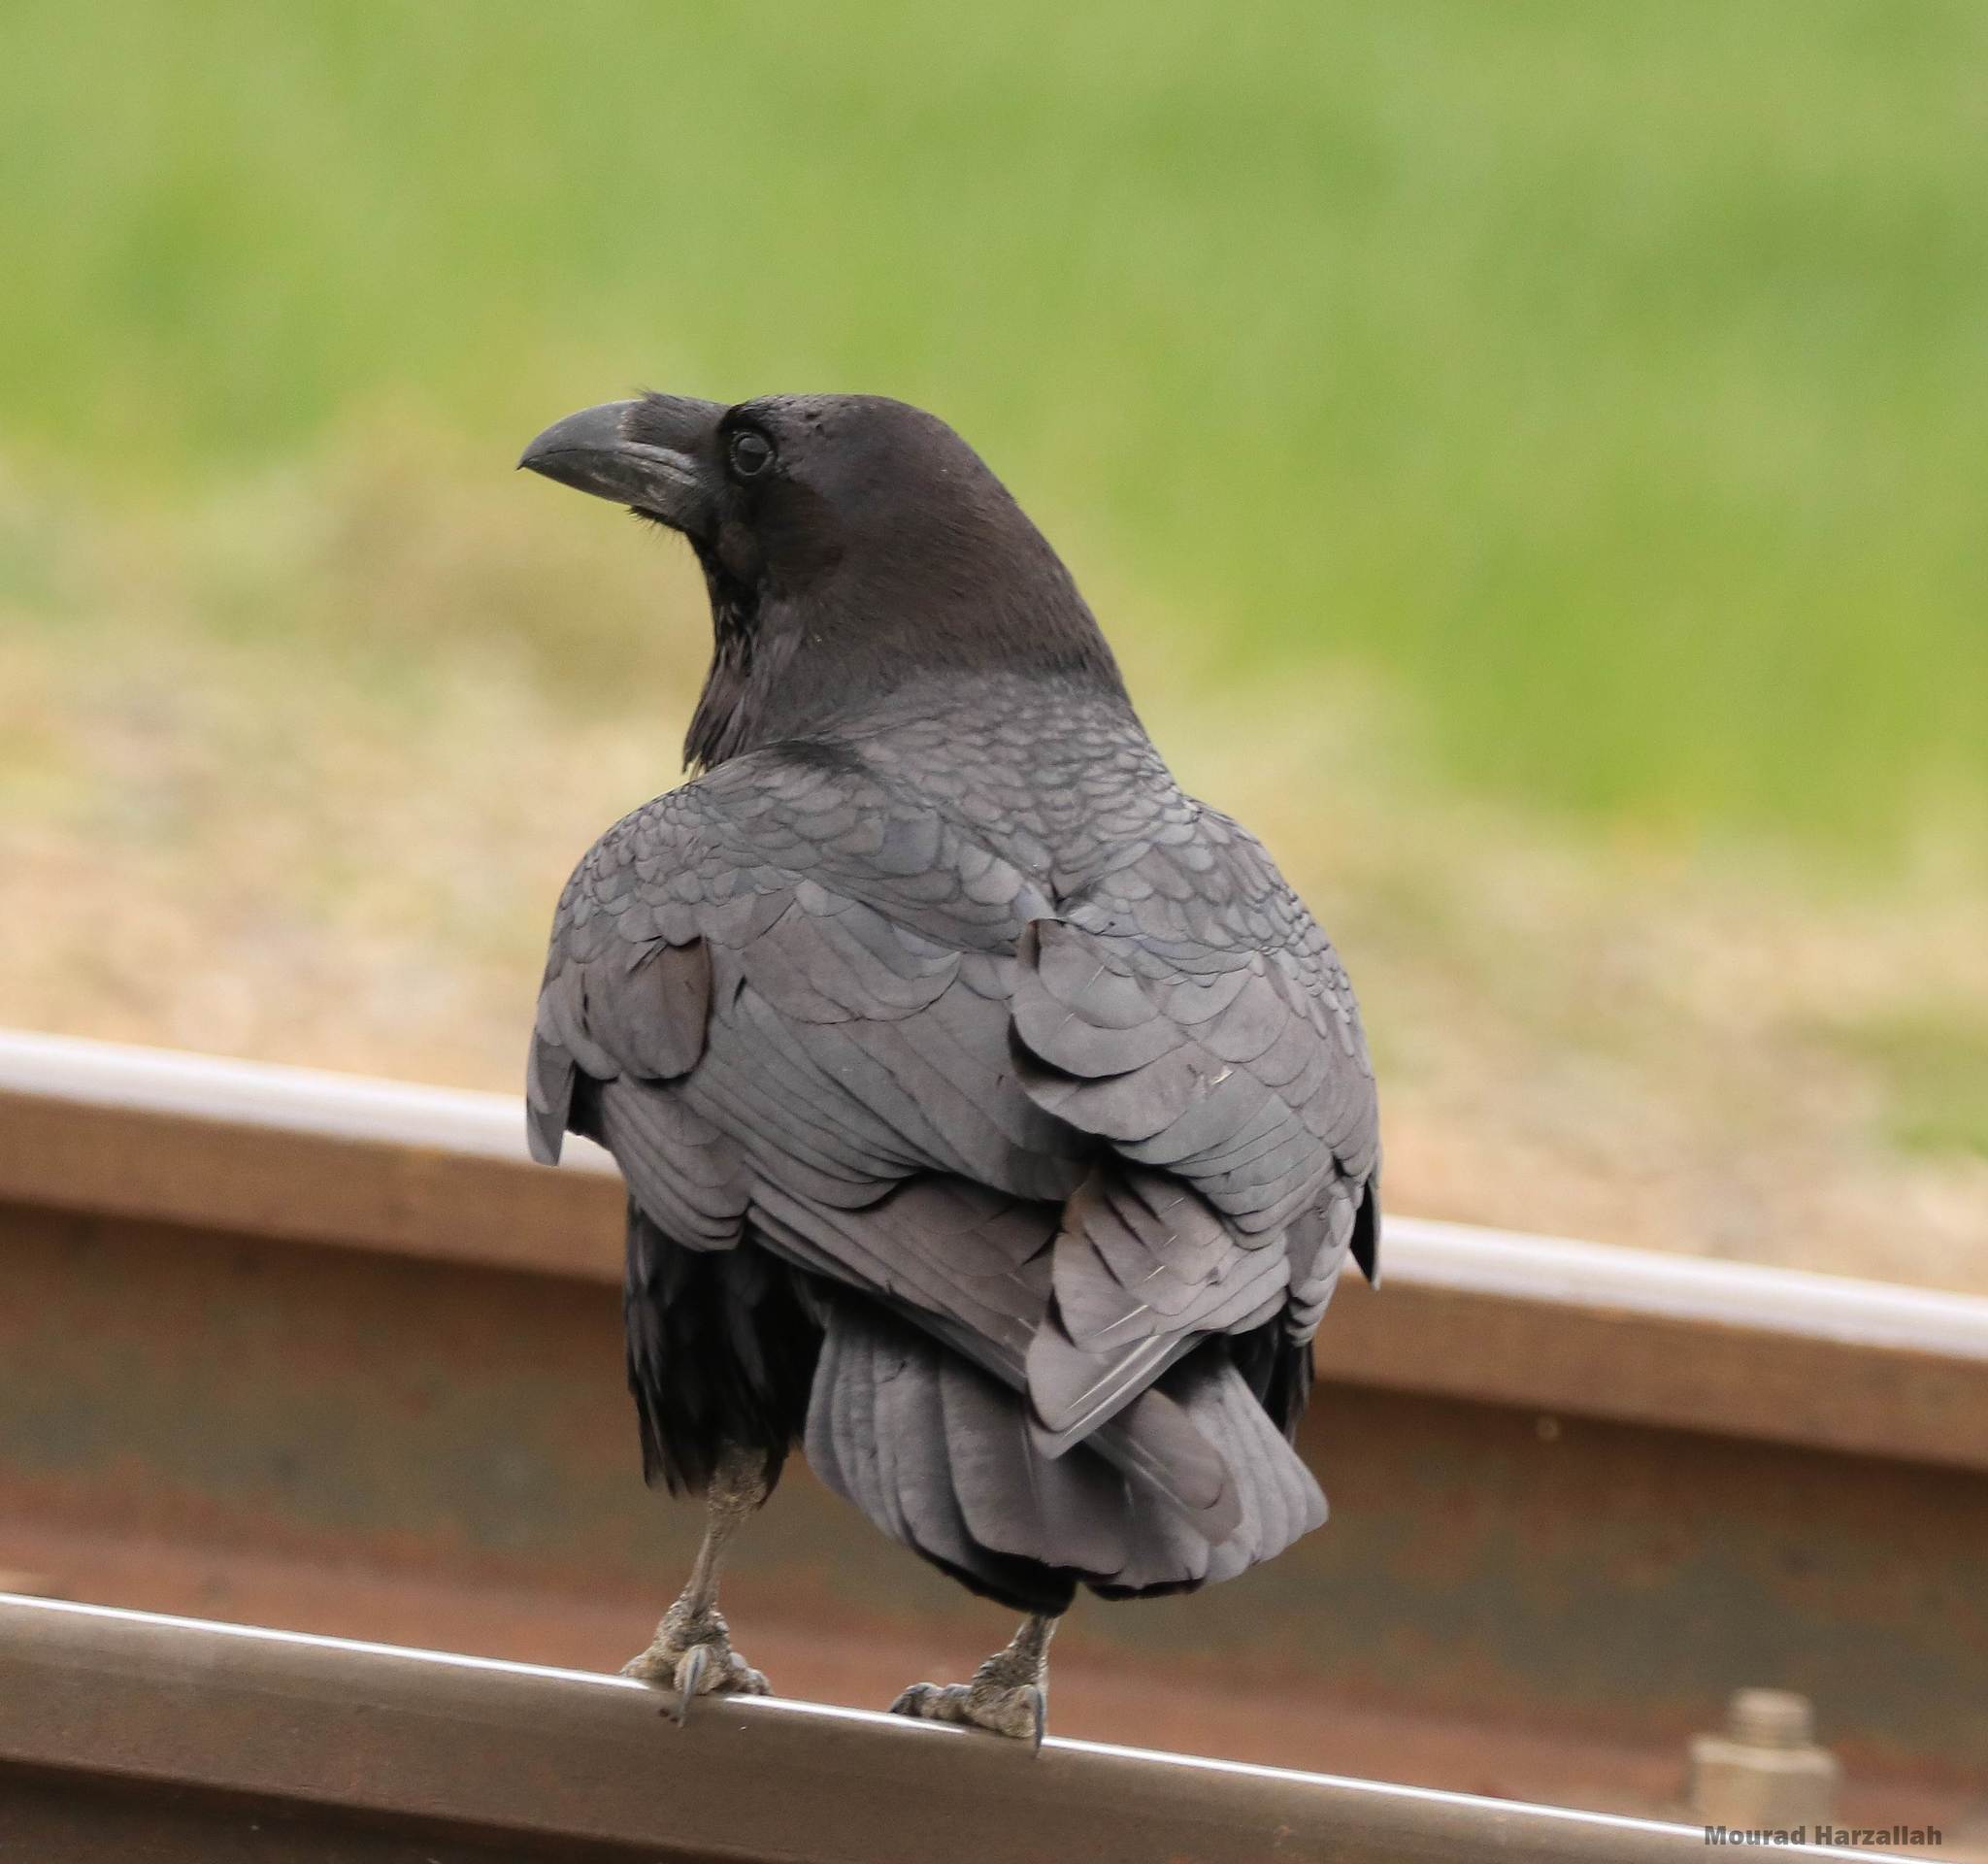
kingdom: Animalia
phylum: Chordata
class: Aves
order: Passeriformes
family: Corvidae
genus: Corvus
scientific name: Corvus corax
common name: Common raven
